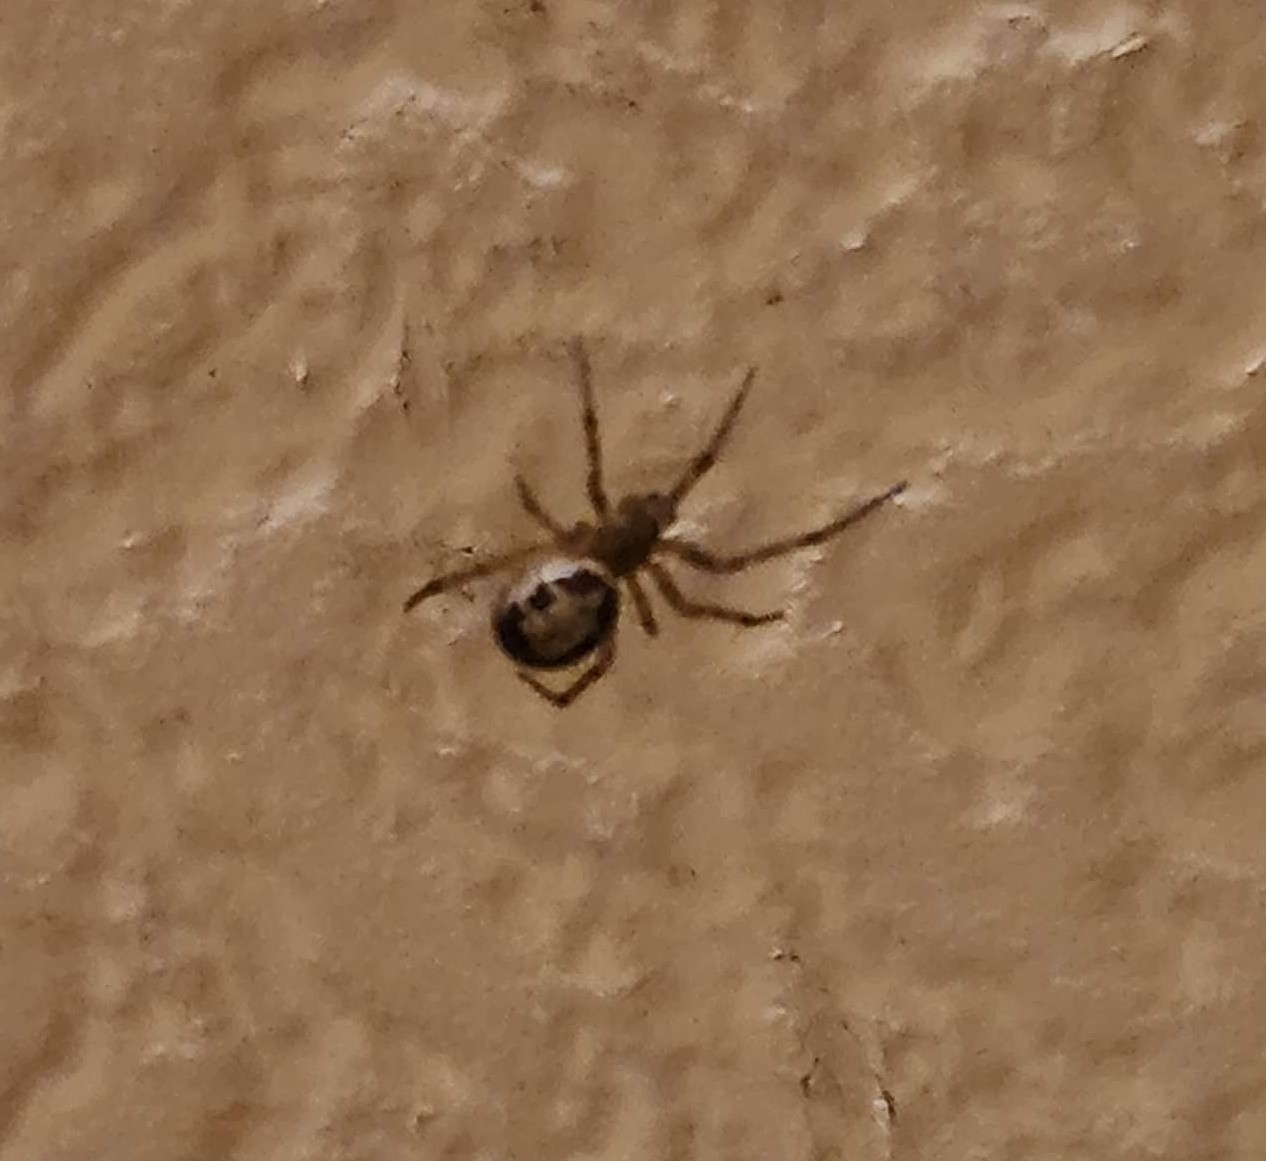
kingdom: Animalia
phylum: Arthropoda
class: Arachnida
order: Araneae
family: Theridiidae
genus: Steatoda
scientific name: Steatoda nobilis
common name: Cobweb weaver
